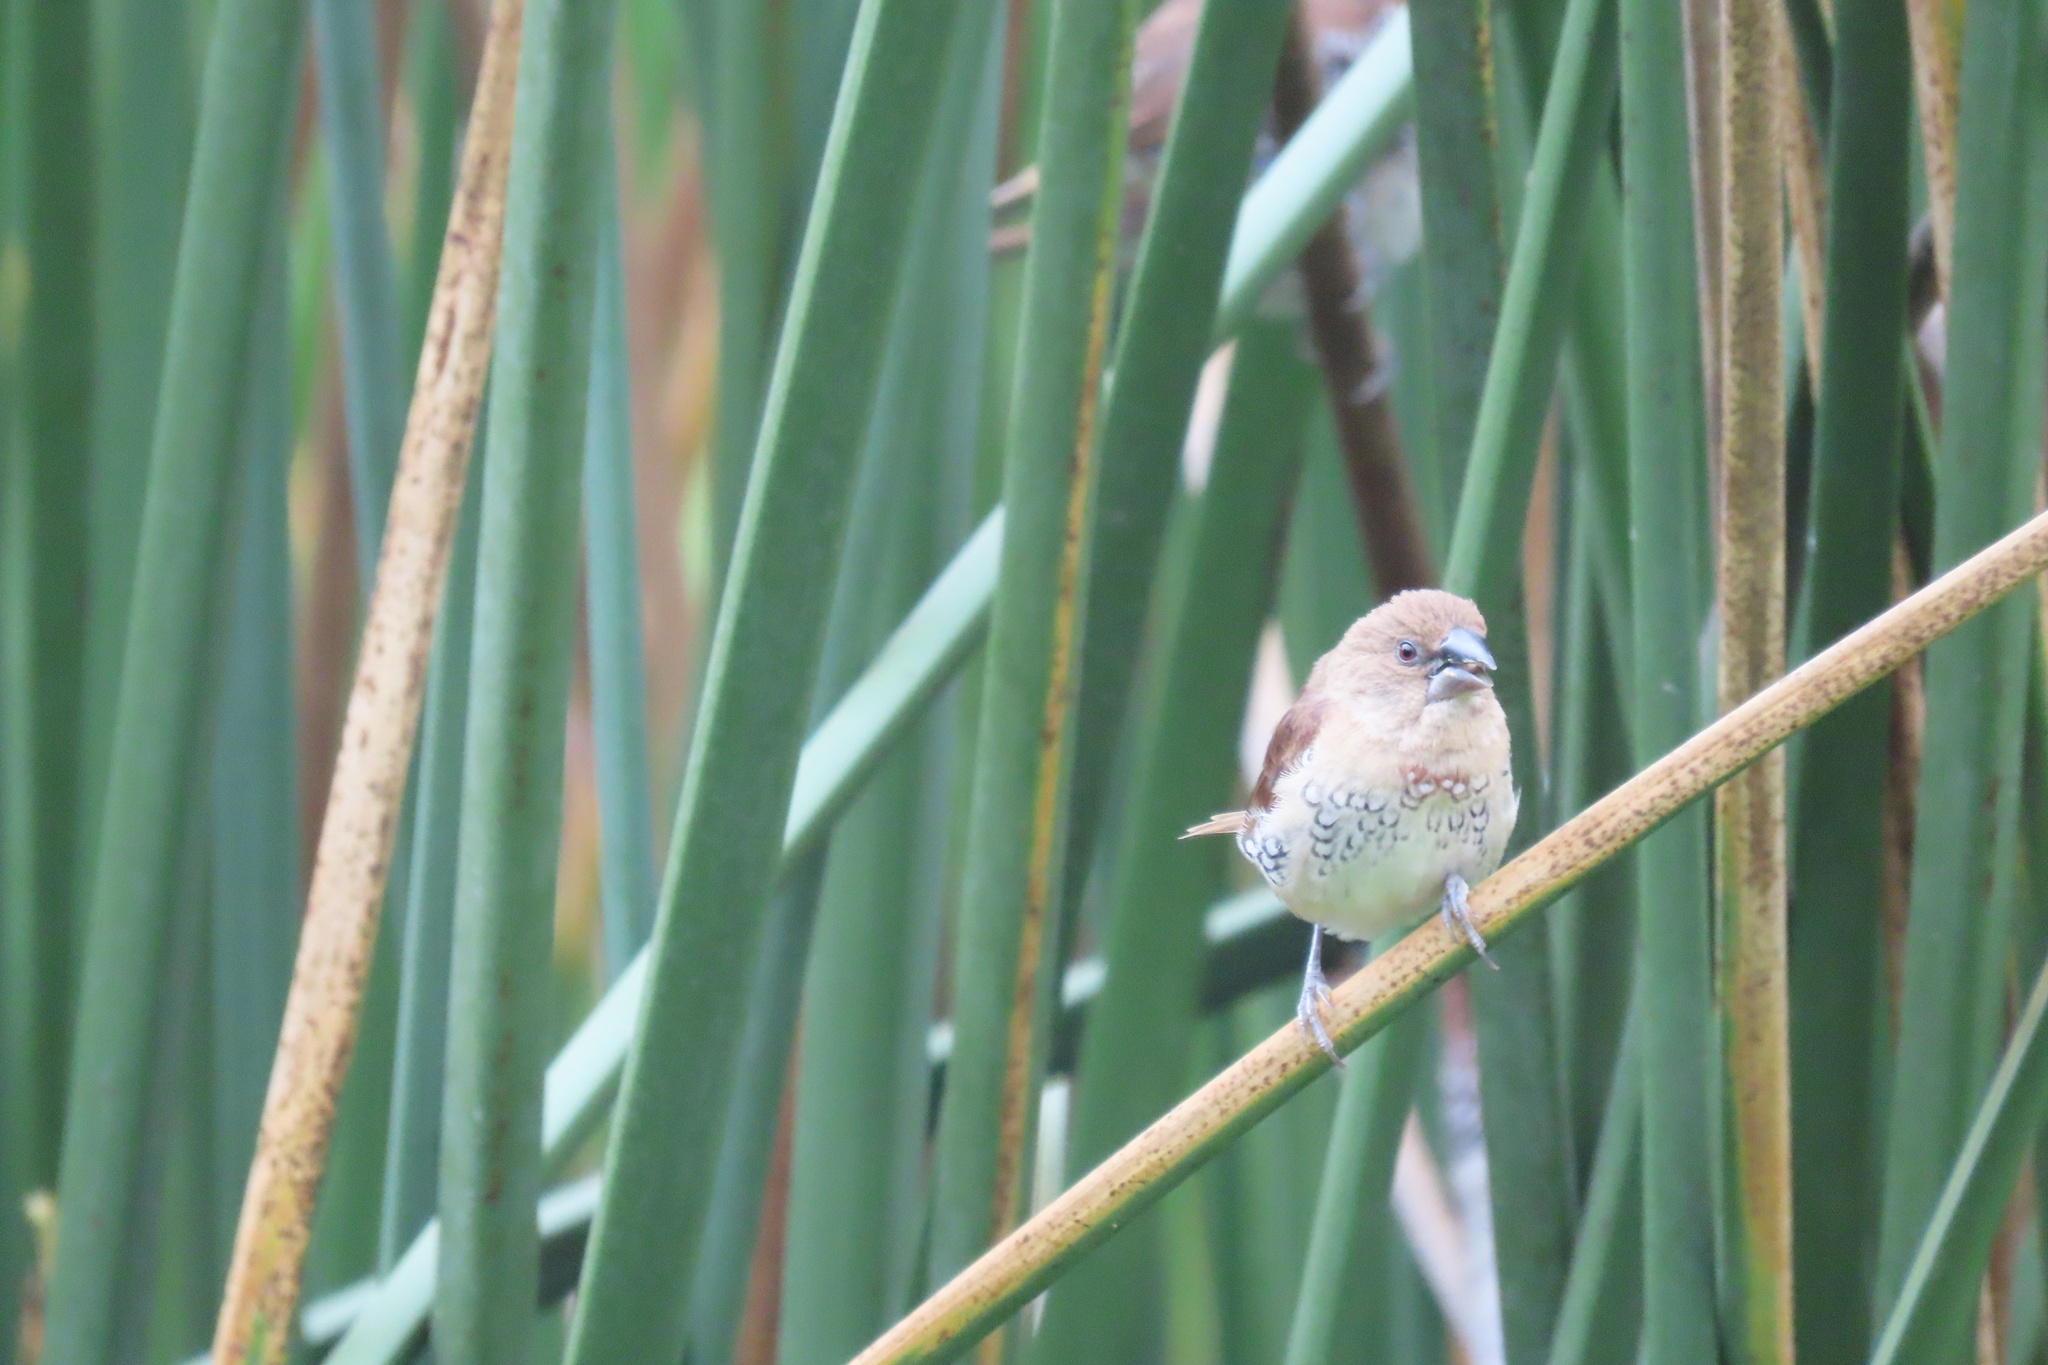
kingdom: Animalia
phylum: Chordata
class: Aves
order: Passeriformes
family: Estrildidae
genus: Lonchura
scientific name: Lonchura punctulata
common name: Scaly-breasted munia
